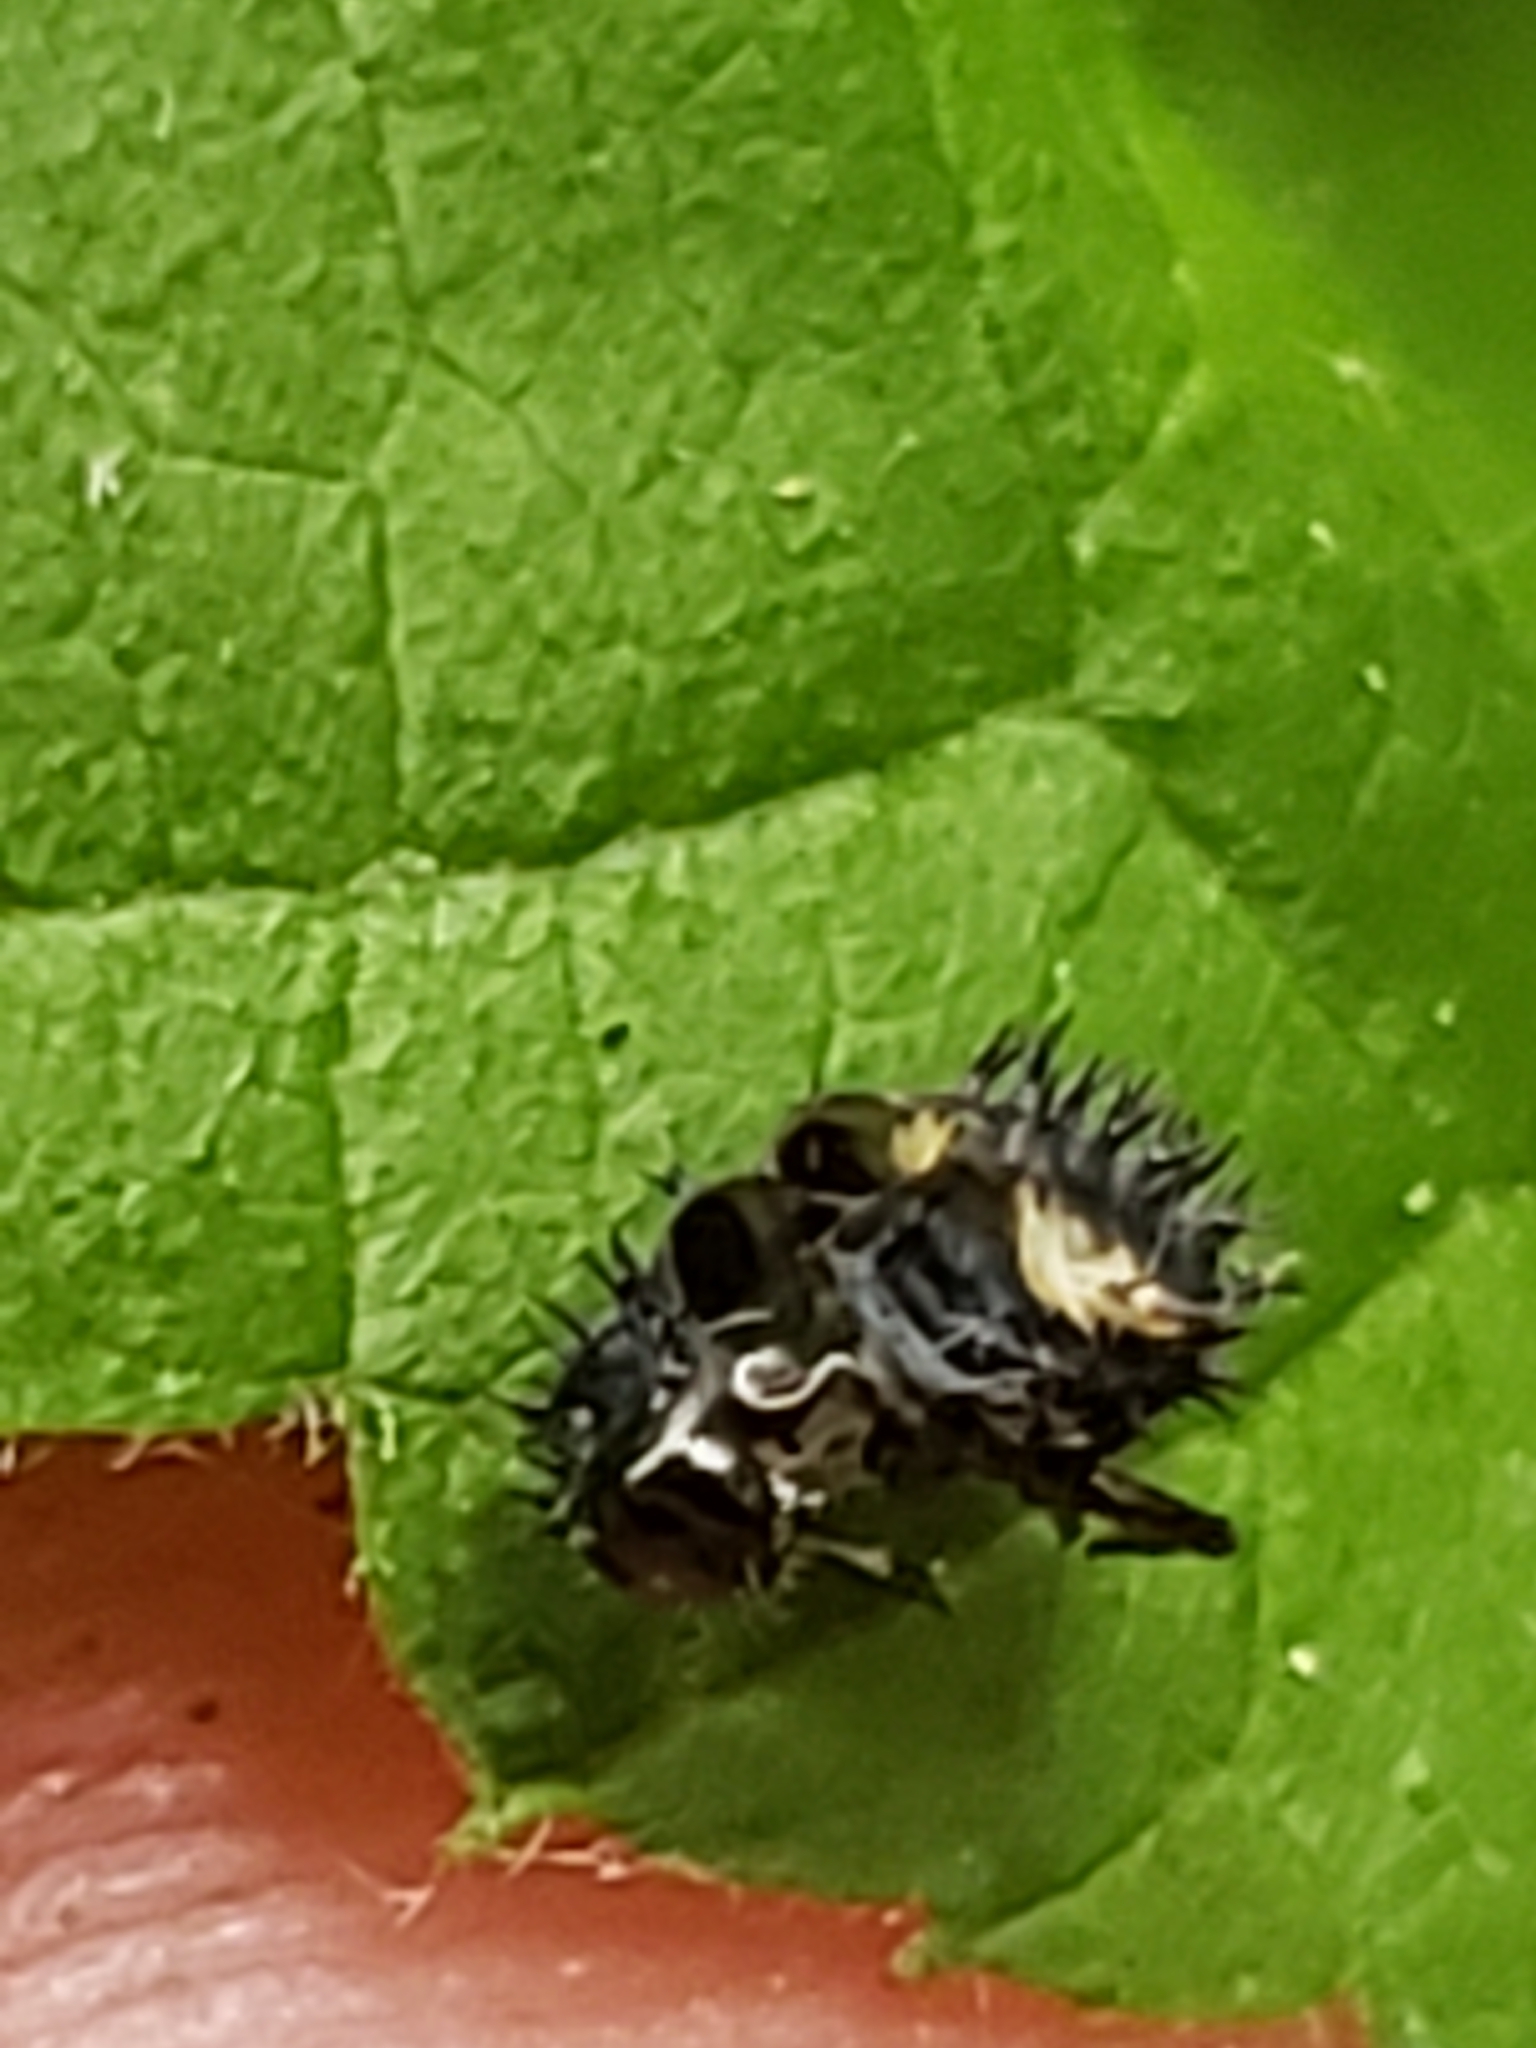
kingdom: Animalia
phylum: Arthropoda
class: Insecta
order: Coleoptera
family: Coccinellidae
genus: Harmonia
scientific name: Harmonia axyridis
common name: Harlequin ladybird
